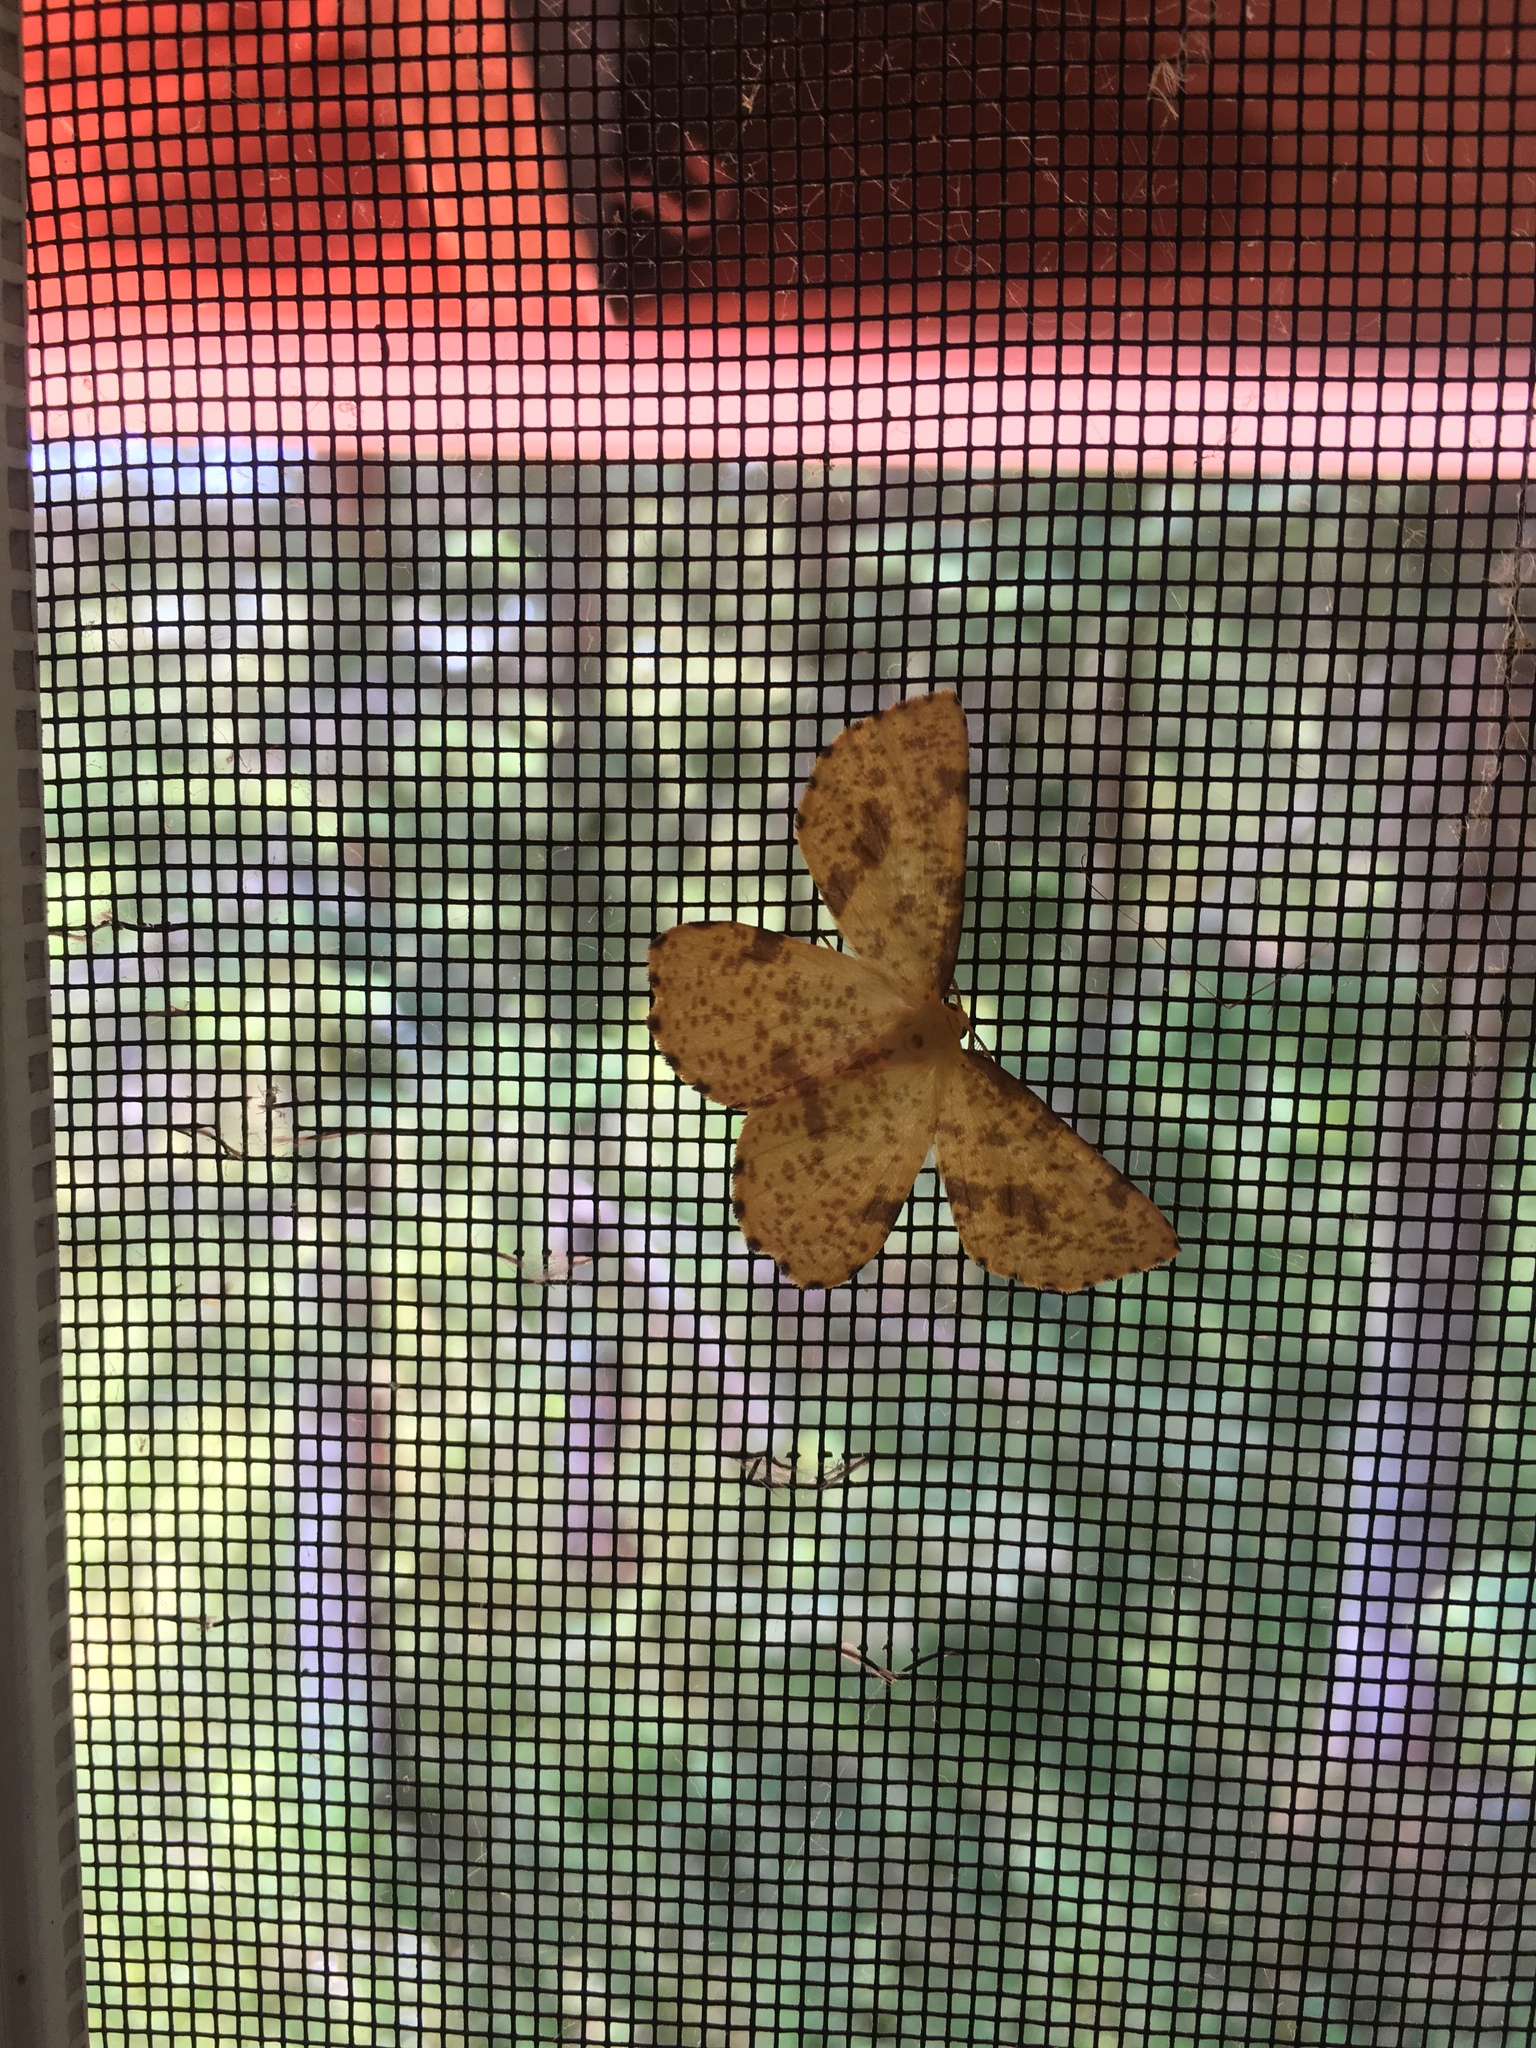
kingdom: Animalia
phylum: Arthropoda
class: Insecta
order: Lepidoptera
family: Geometridae
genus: Xanthotype
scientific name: Xanthotype
